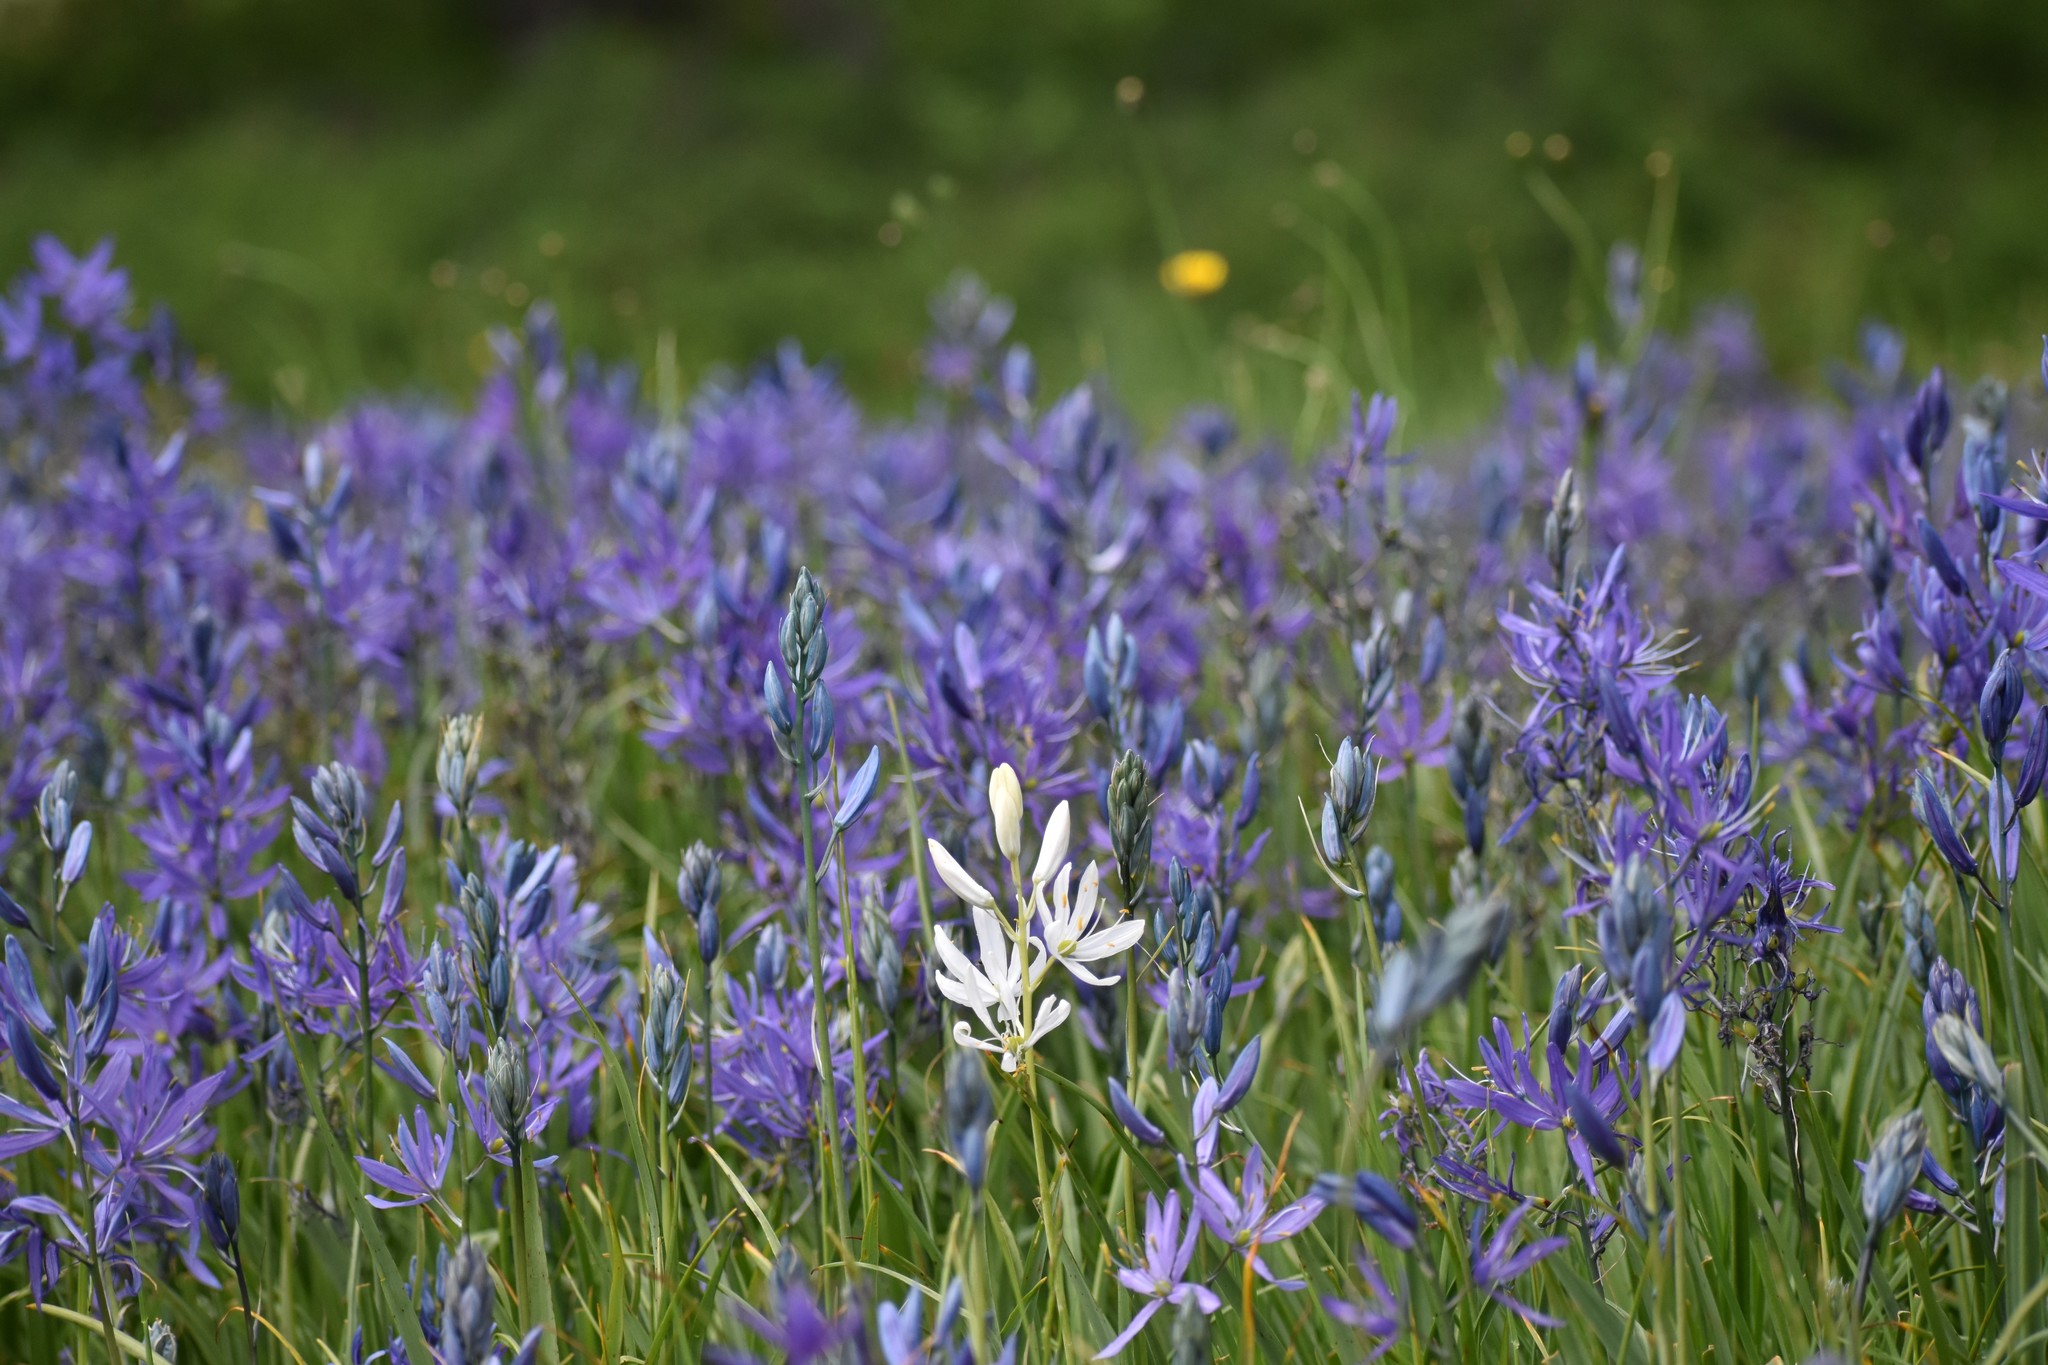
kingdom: Plantae
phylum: Tracheophyta
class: Liliopsida
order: Asparagales
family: Asparagaceae
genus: Camassia
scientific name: Camassia quamash
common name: Common camas
